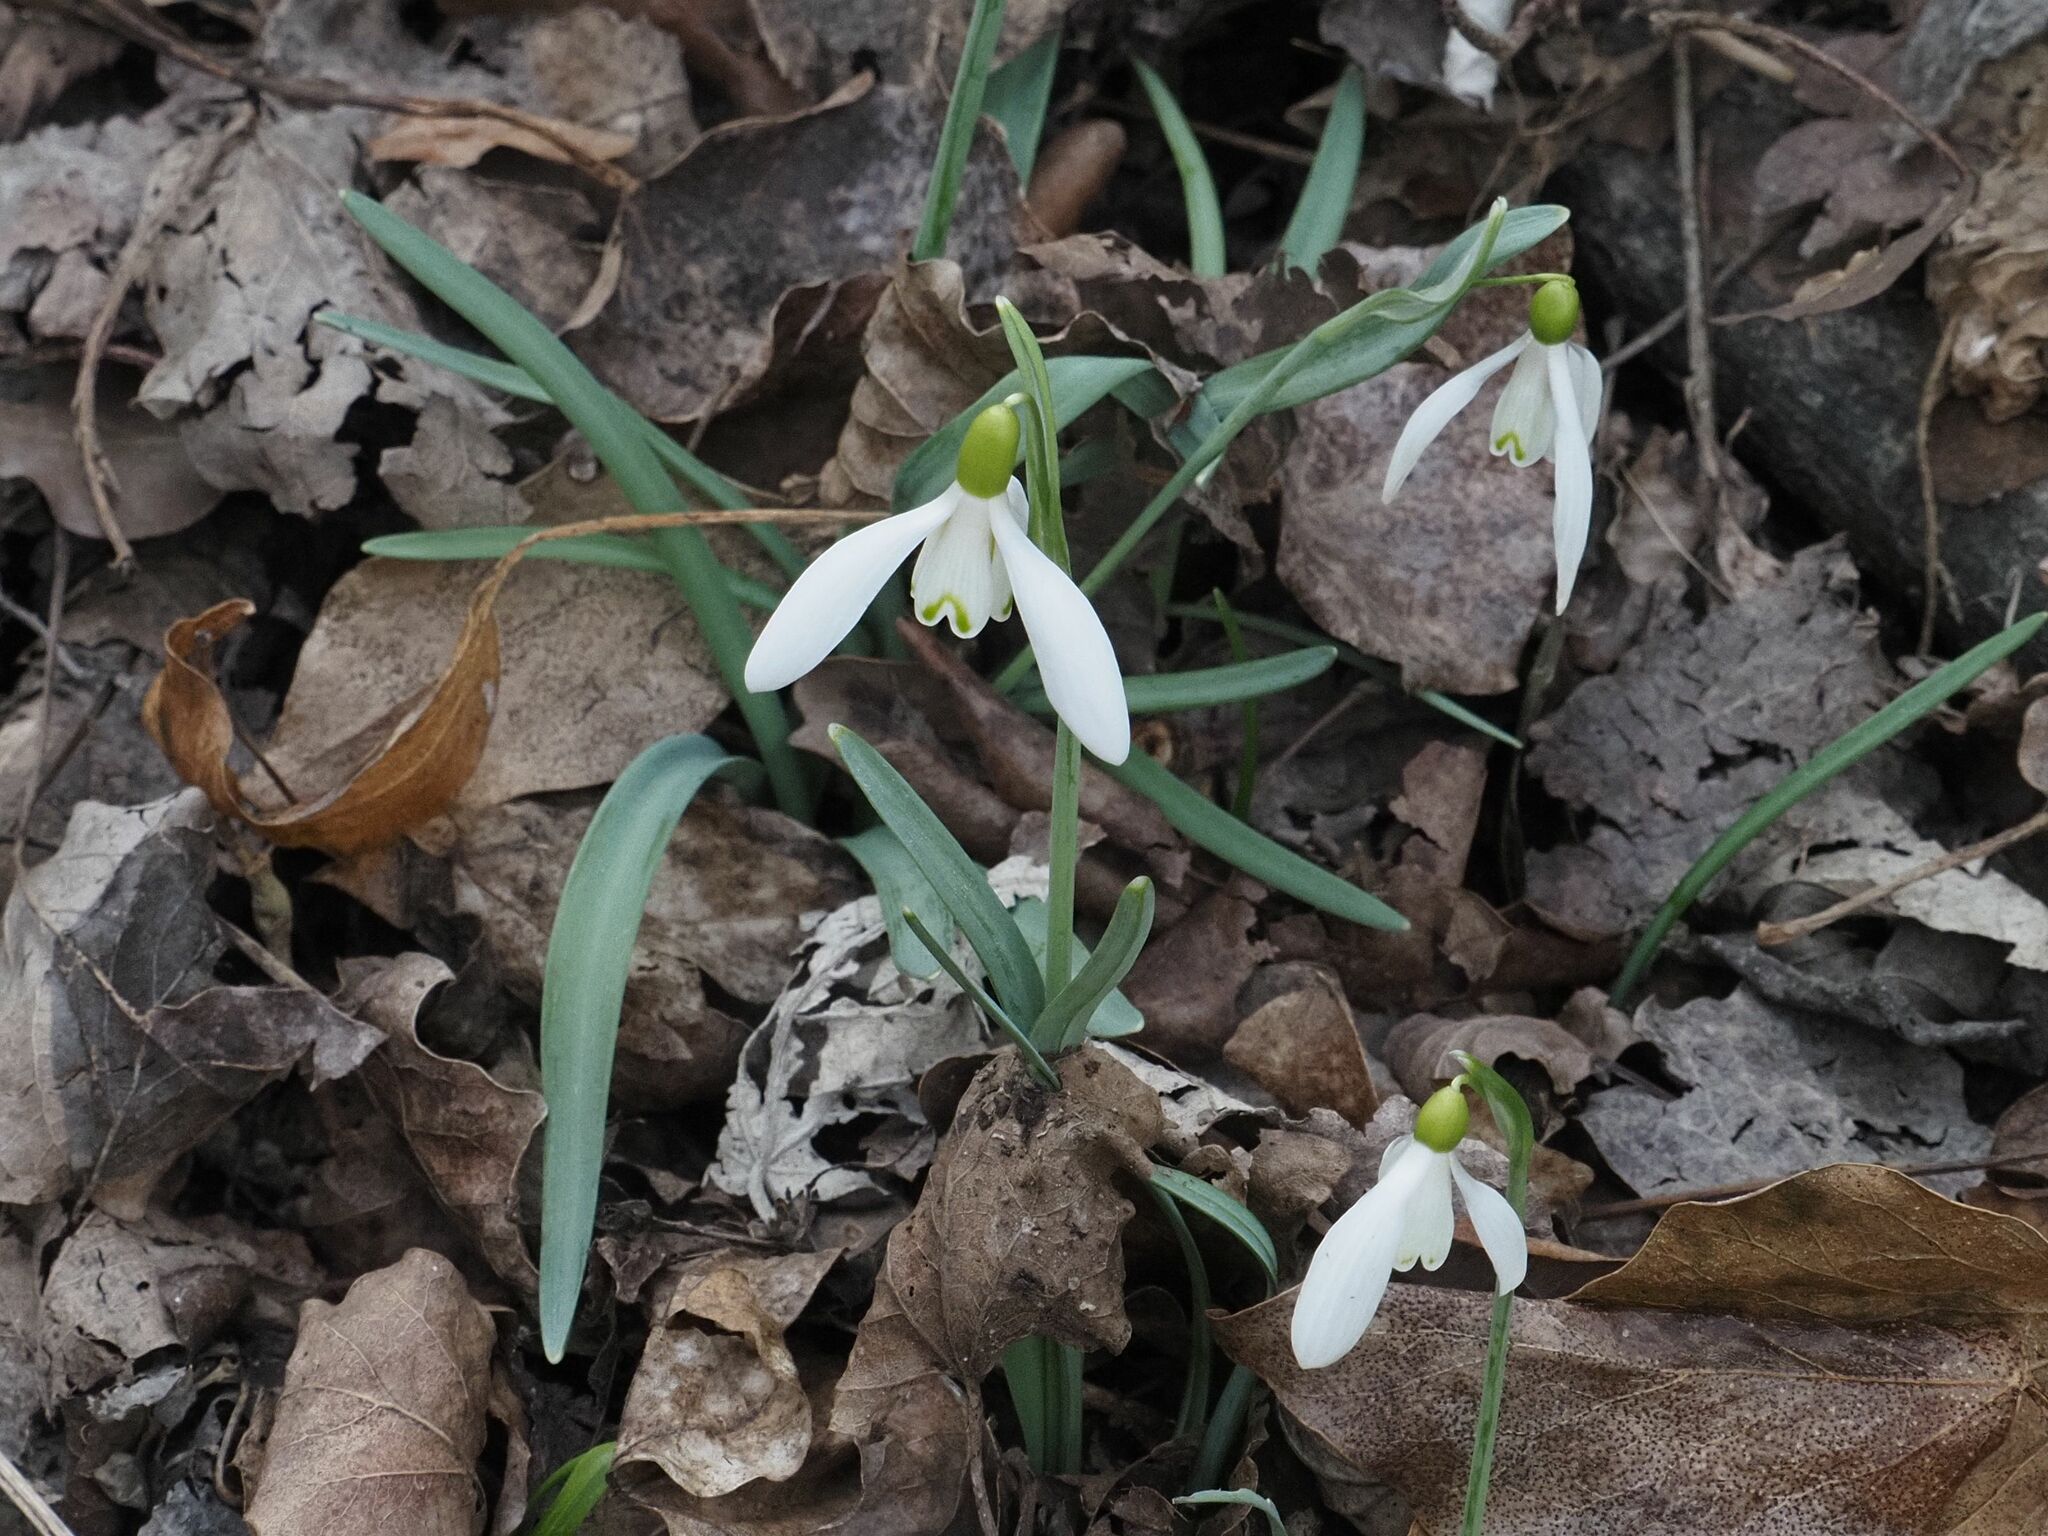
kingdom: Plantae
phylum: Tracheophyta
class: Liliopsida
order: Asparagales
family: Amaryllidaceae
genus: Galanthus
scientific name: Galanthus nivalis
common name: Snowdrop
